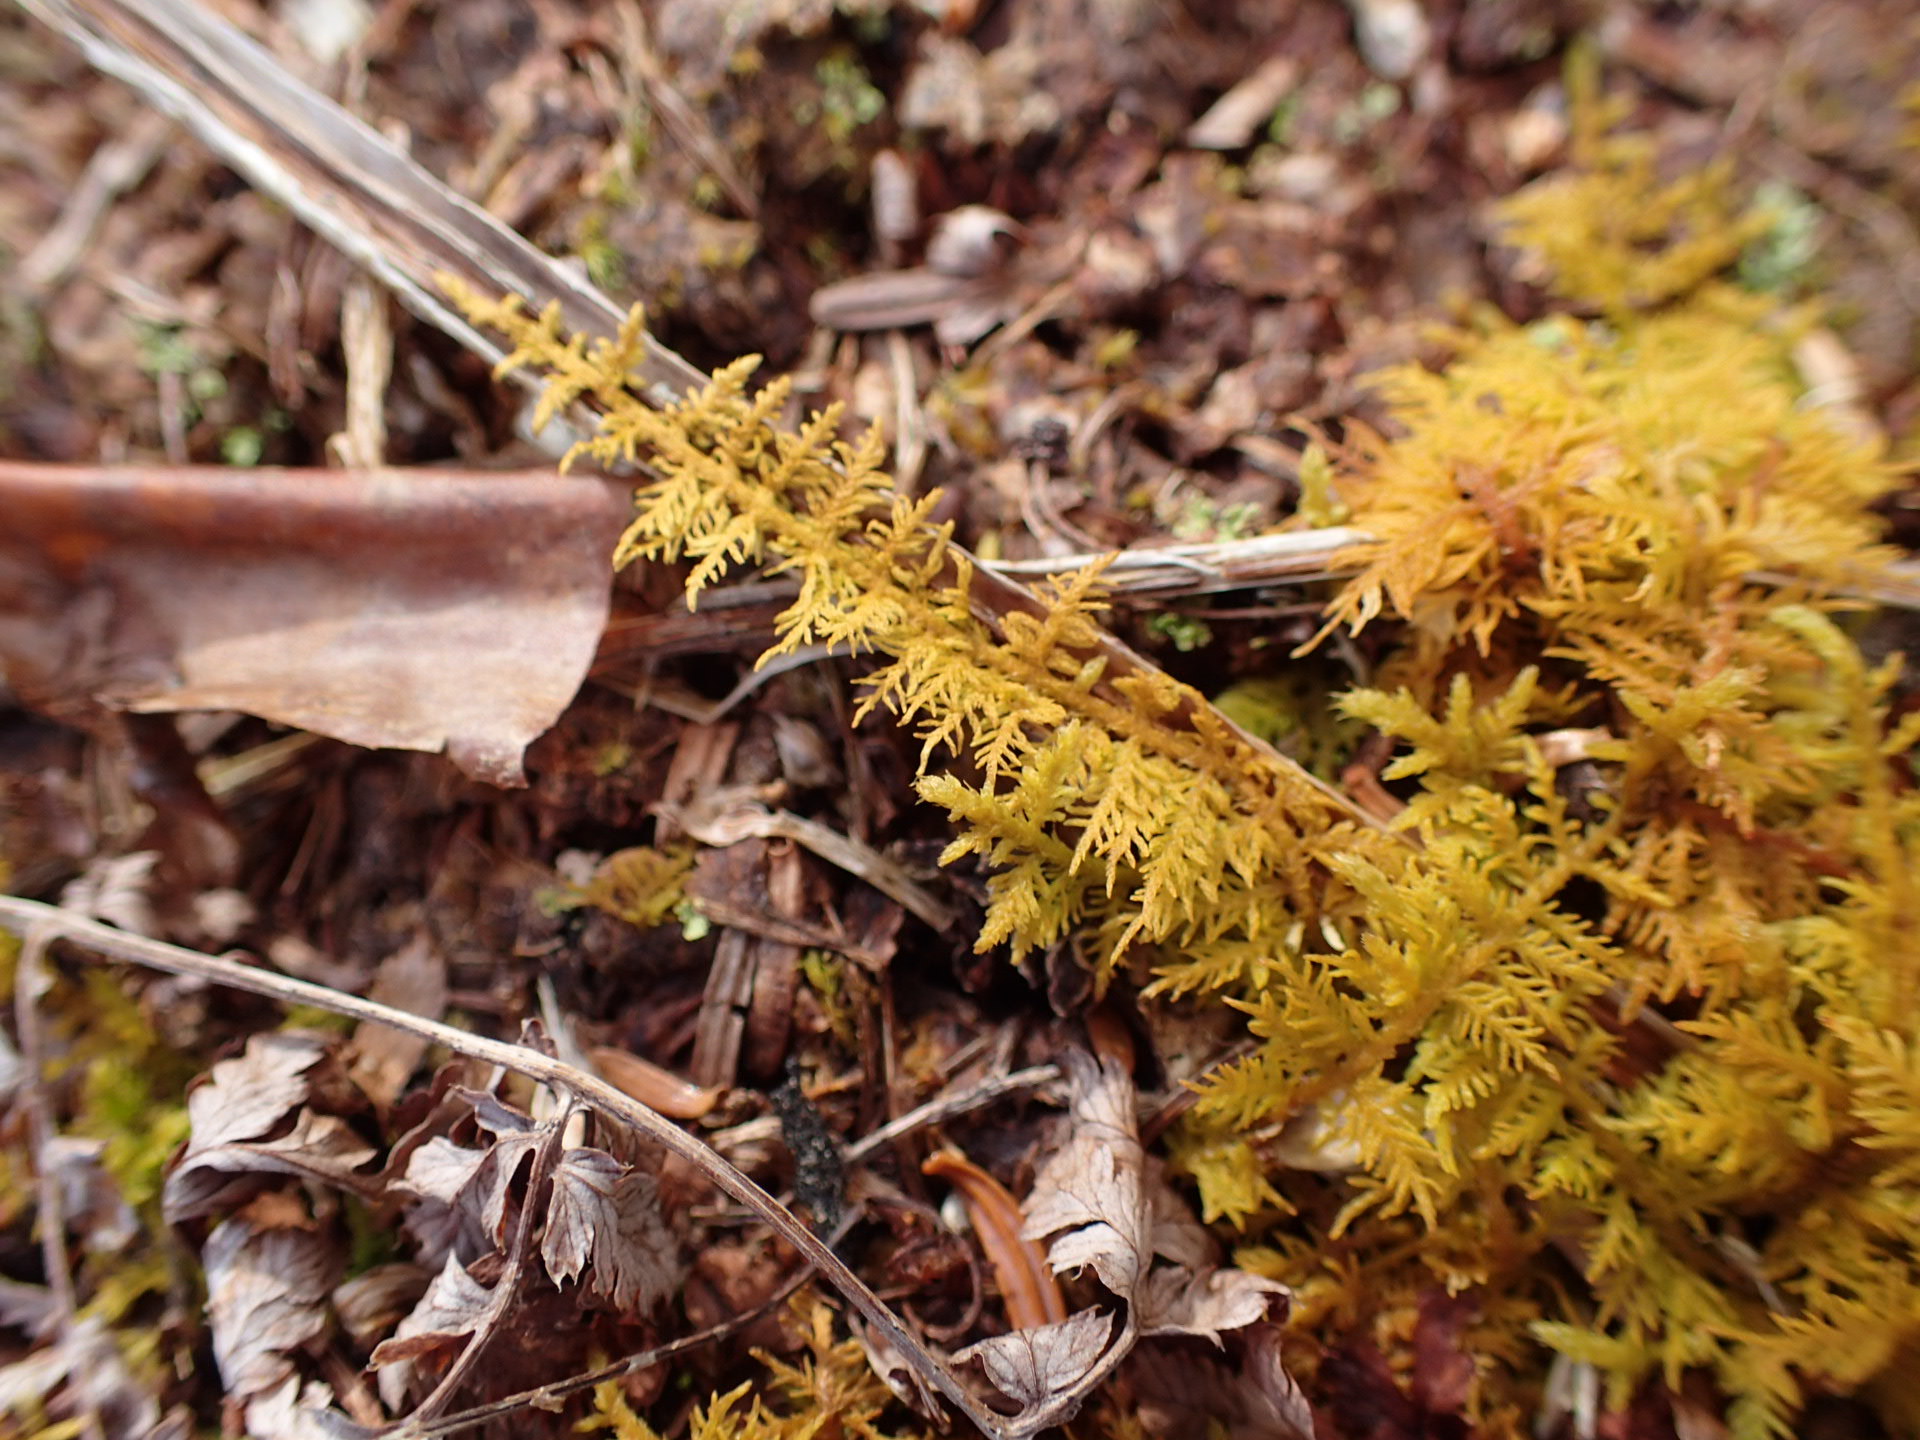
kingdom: Plantae
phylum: Bryophyta
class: Bryopsida
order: Hypnales
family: Thuidiaceae
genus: Thuidium
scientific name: Thuidium delicatulum
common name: Delicate fern moss
